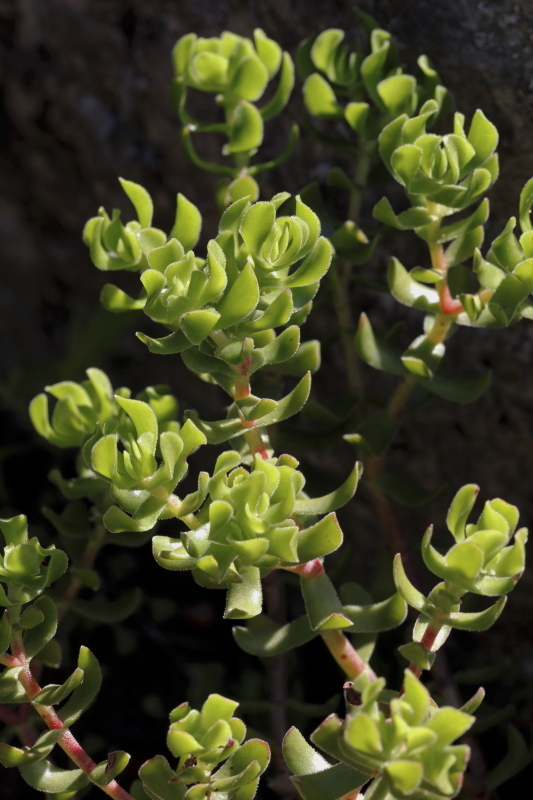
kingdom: Plantae
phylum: Tracheophyta
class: Magnoliopsida
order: Saxifragales
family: Crassulaceae
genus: Crassula
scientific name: Crassula undulata
